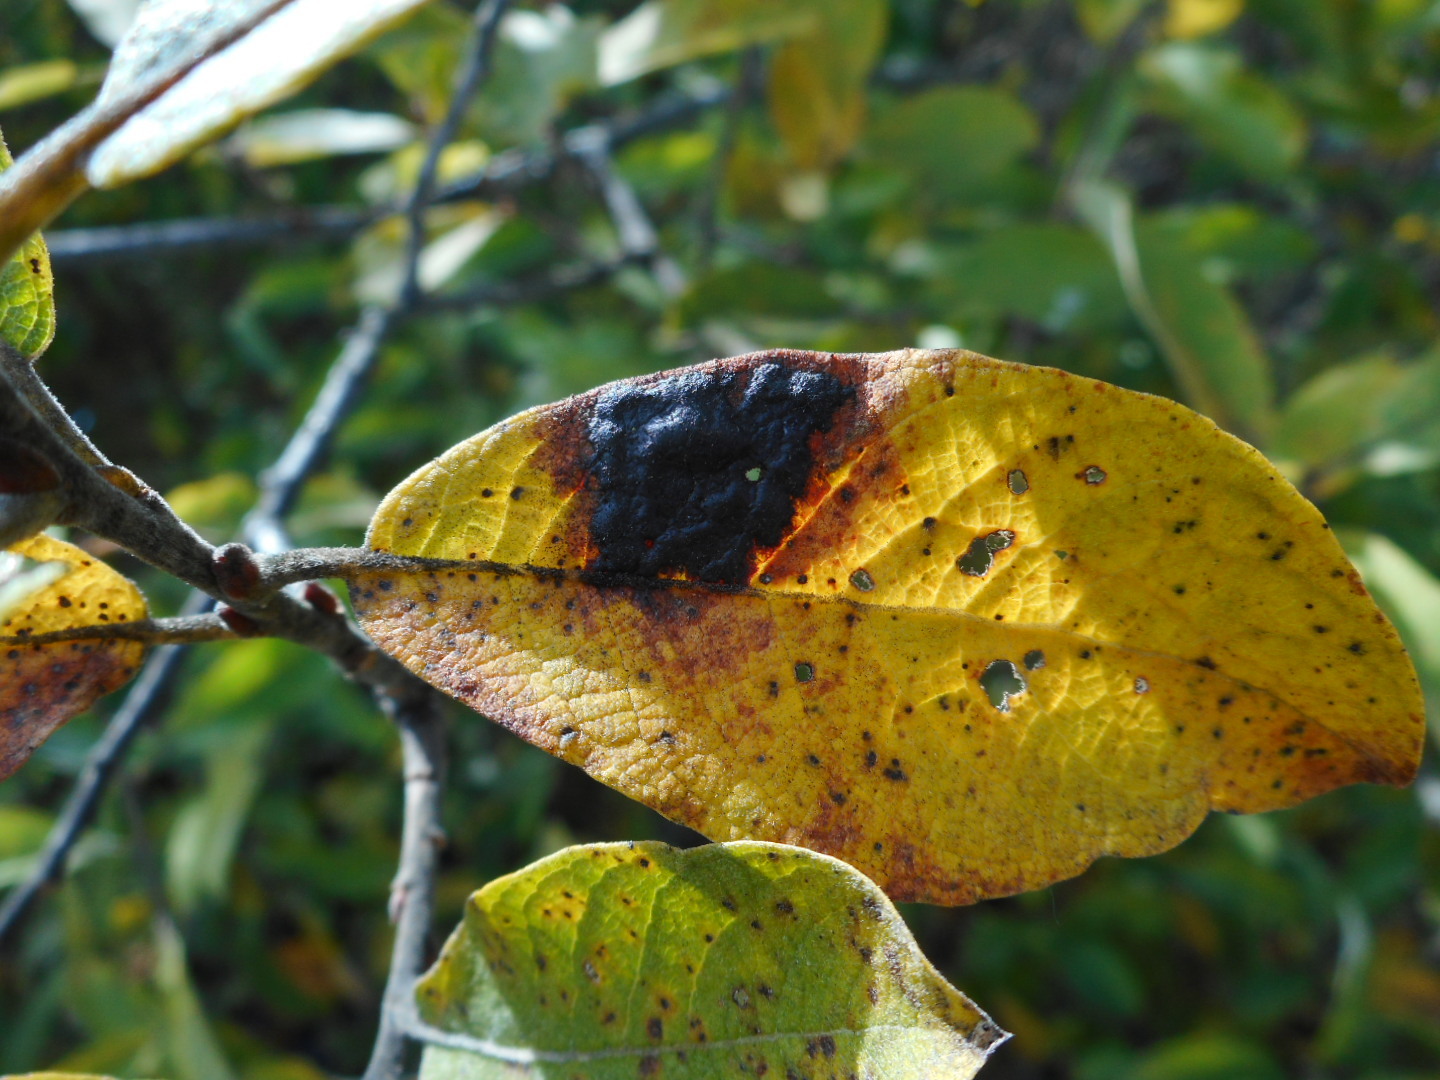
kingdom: Fungi
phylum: Ascomycota
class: Leotiomycetes
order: Rhytismatales
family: Rhytismataceae
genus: Rhytisma
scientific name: Rhytisma salicinum
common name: Willow tarspot
